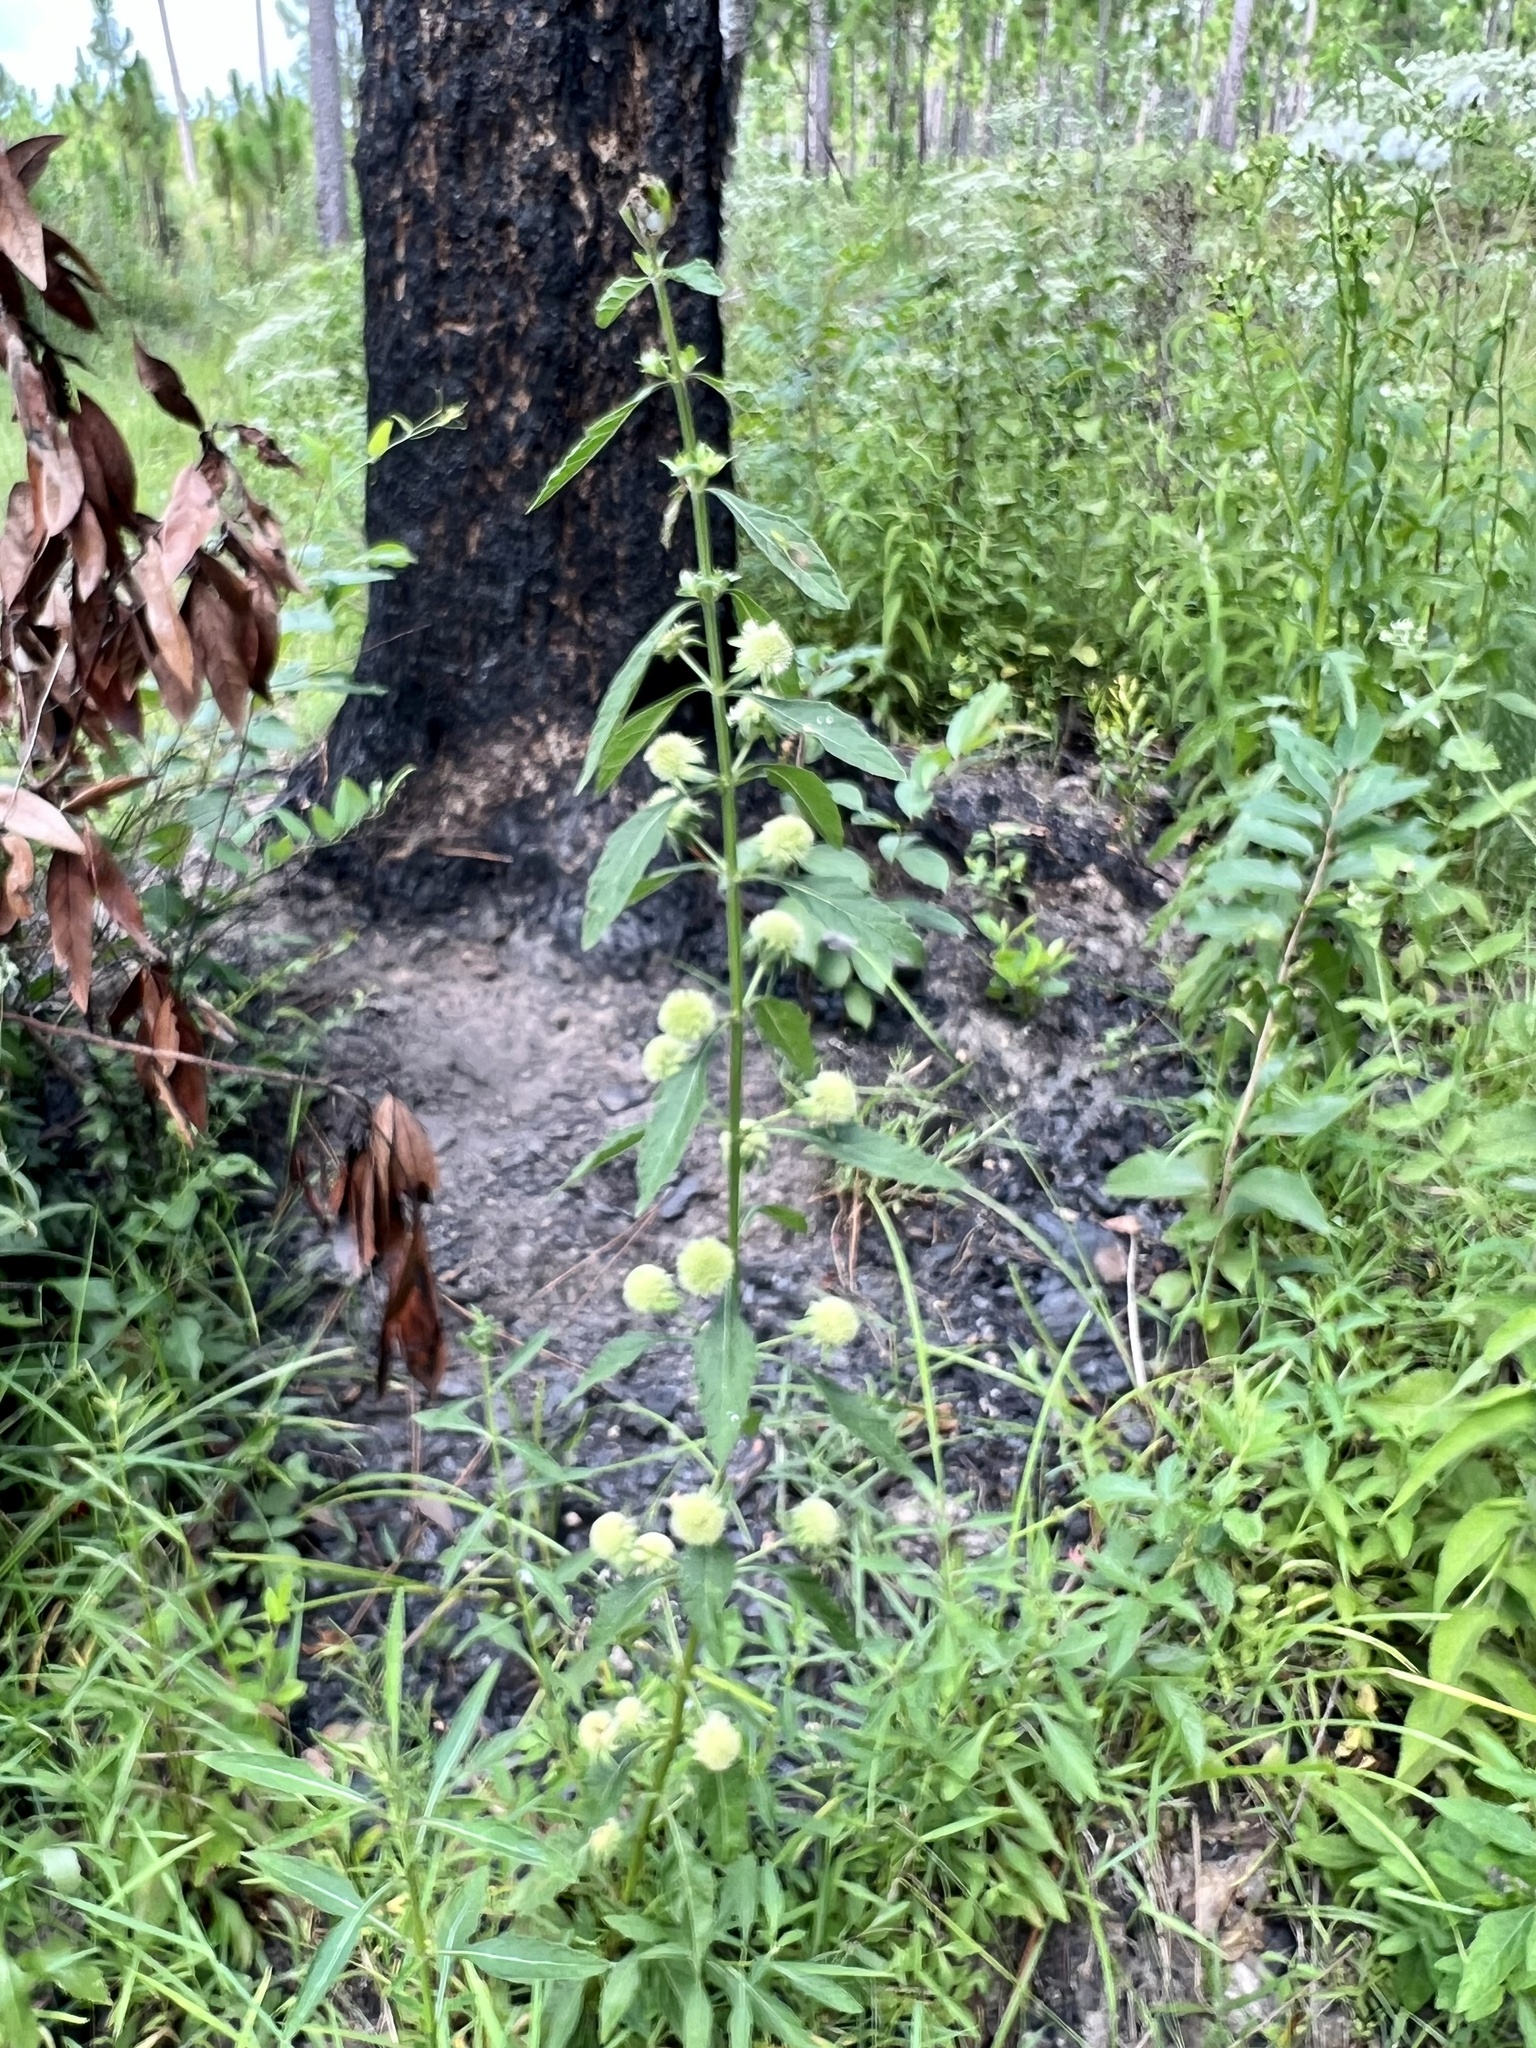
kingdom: Plantae
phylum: Tracheophyta
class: Magnoliopsida
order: Lamiales
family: Lamiaceae
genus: Hyptis
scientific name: Hyptis alata
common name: Cluster bush-mint
